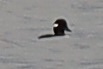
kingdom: Animalia
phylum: Chordata
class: Aves
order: Anseriformes
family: Anatidae
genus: Bucephala
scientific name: Bucephala albeola
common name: Bufflehead
